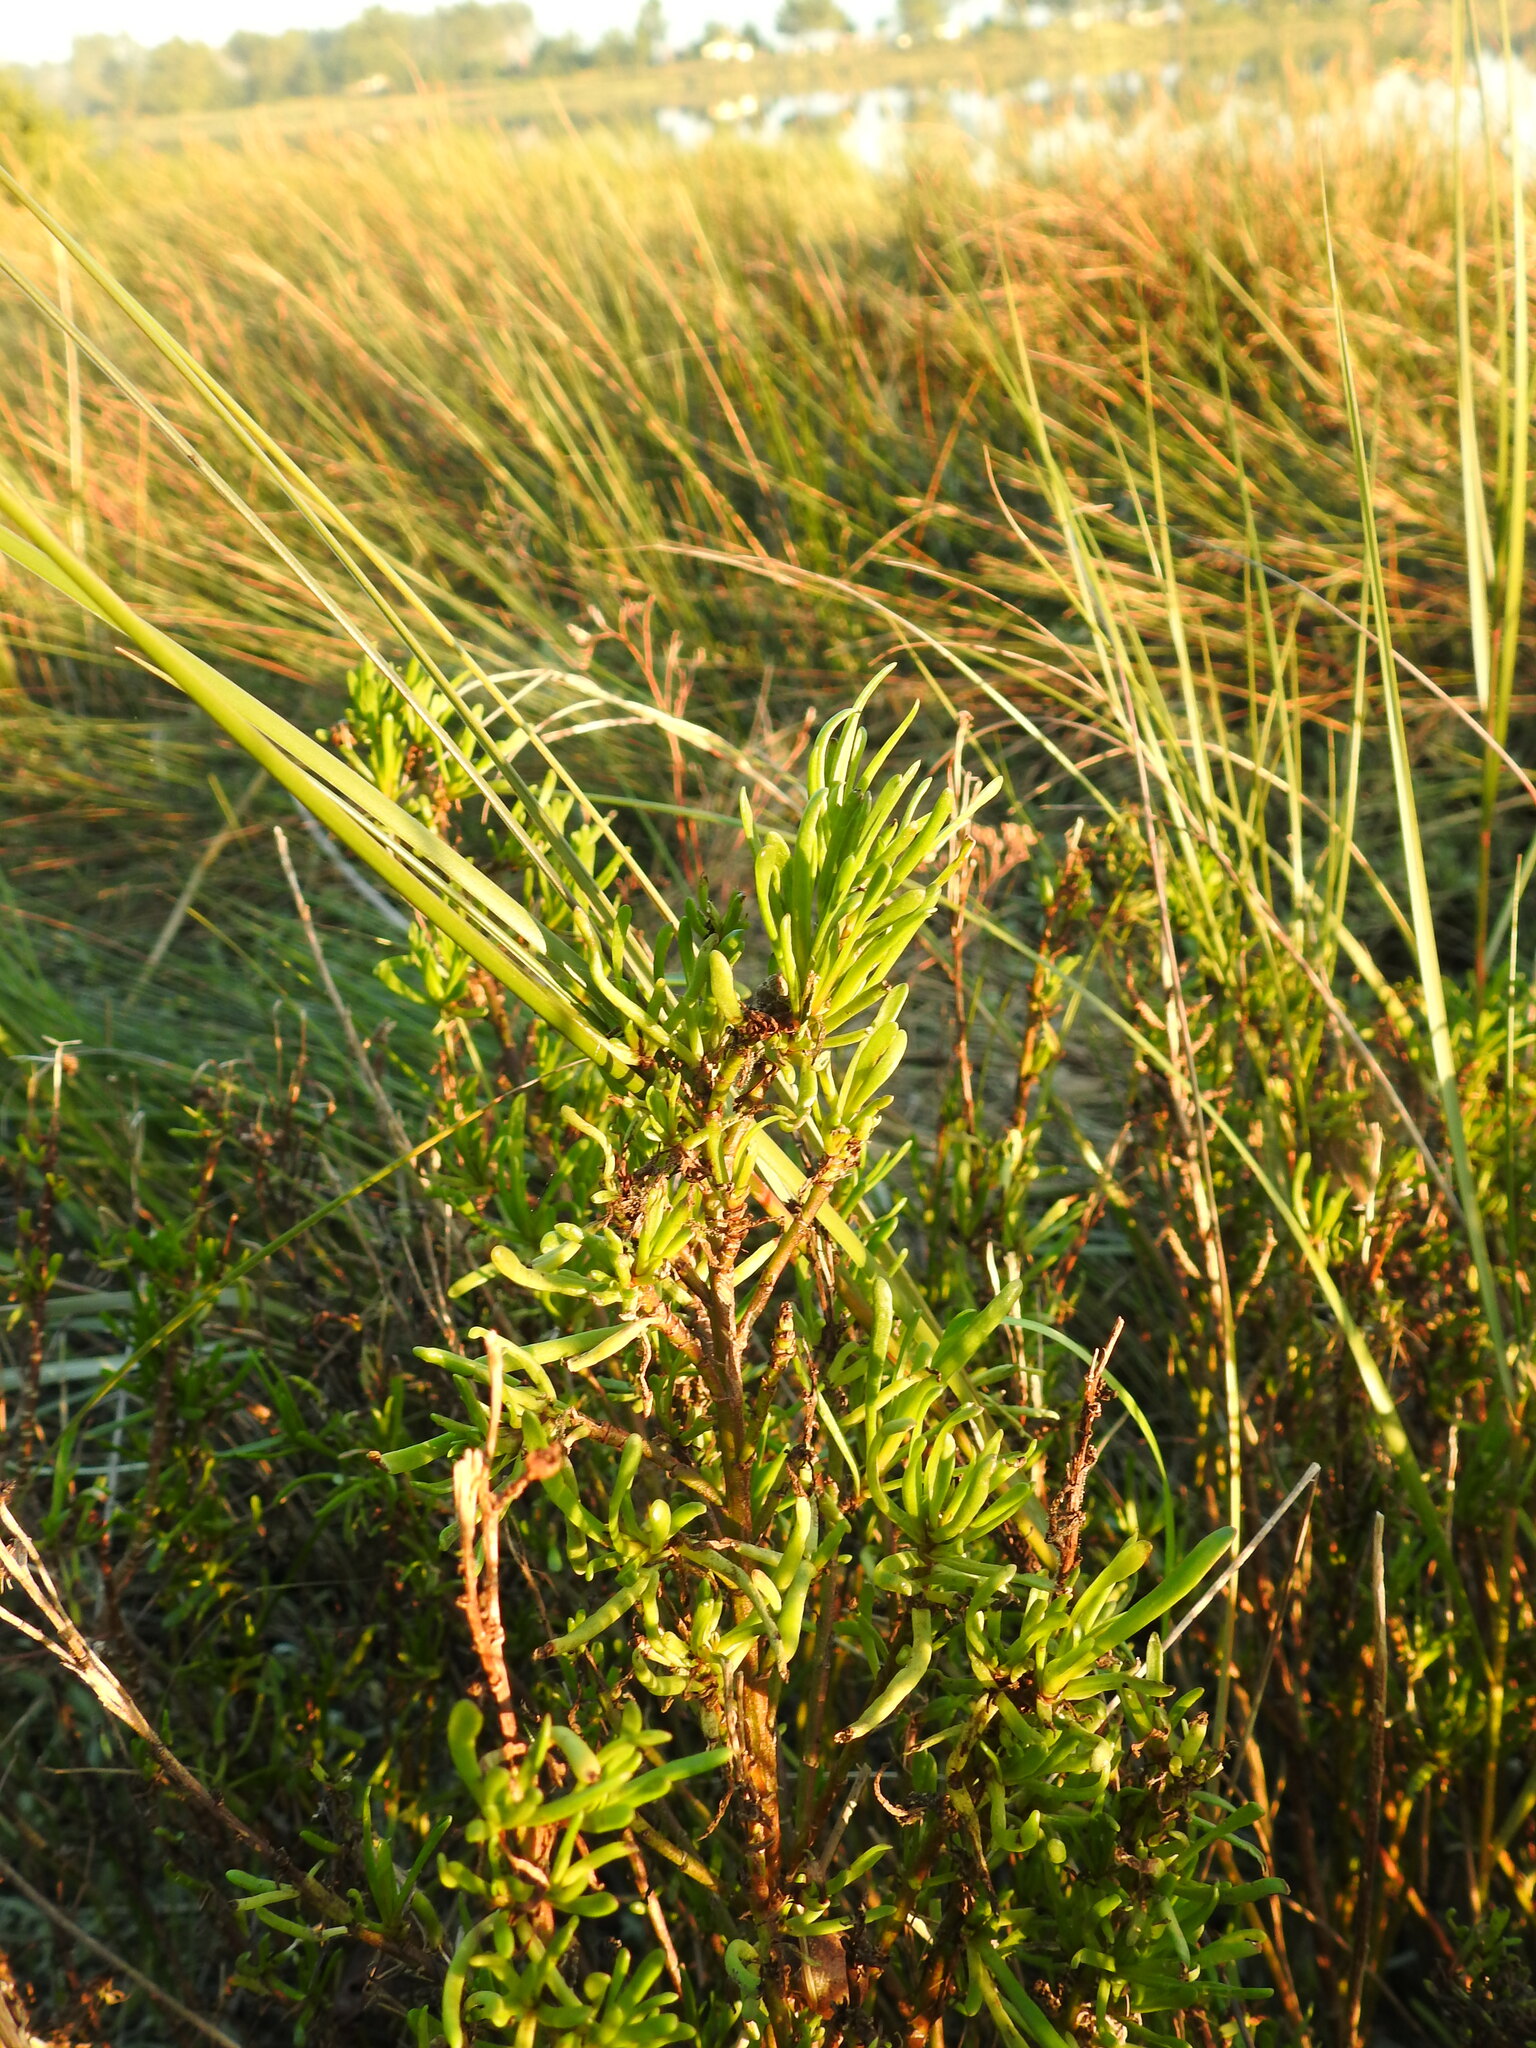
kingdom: Plantae
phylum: Tracheophyta
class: Magnoliopsida
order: Asterales
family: Asteraceae
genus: Limbarda
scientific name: Limbarda crithmoides
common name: Golden samphire
